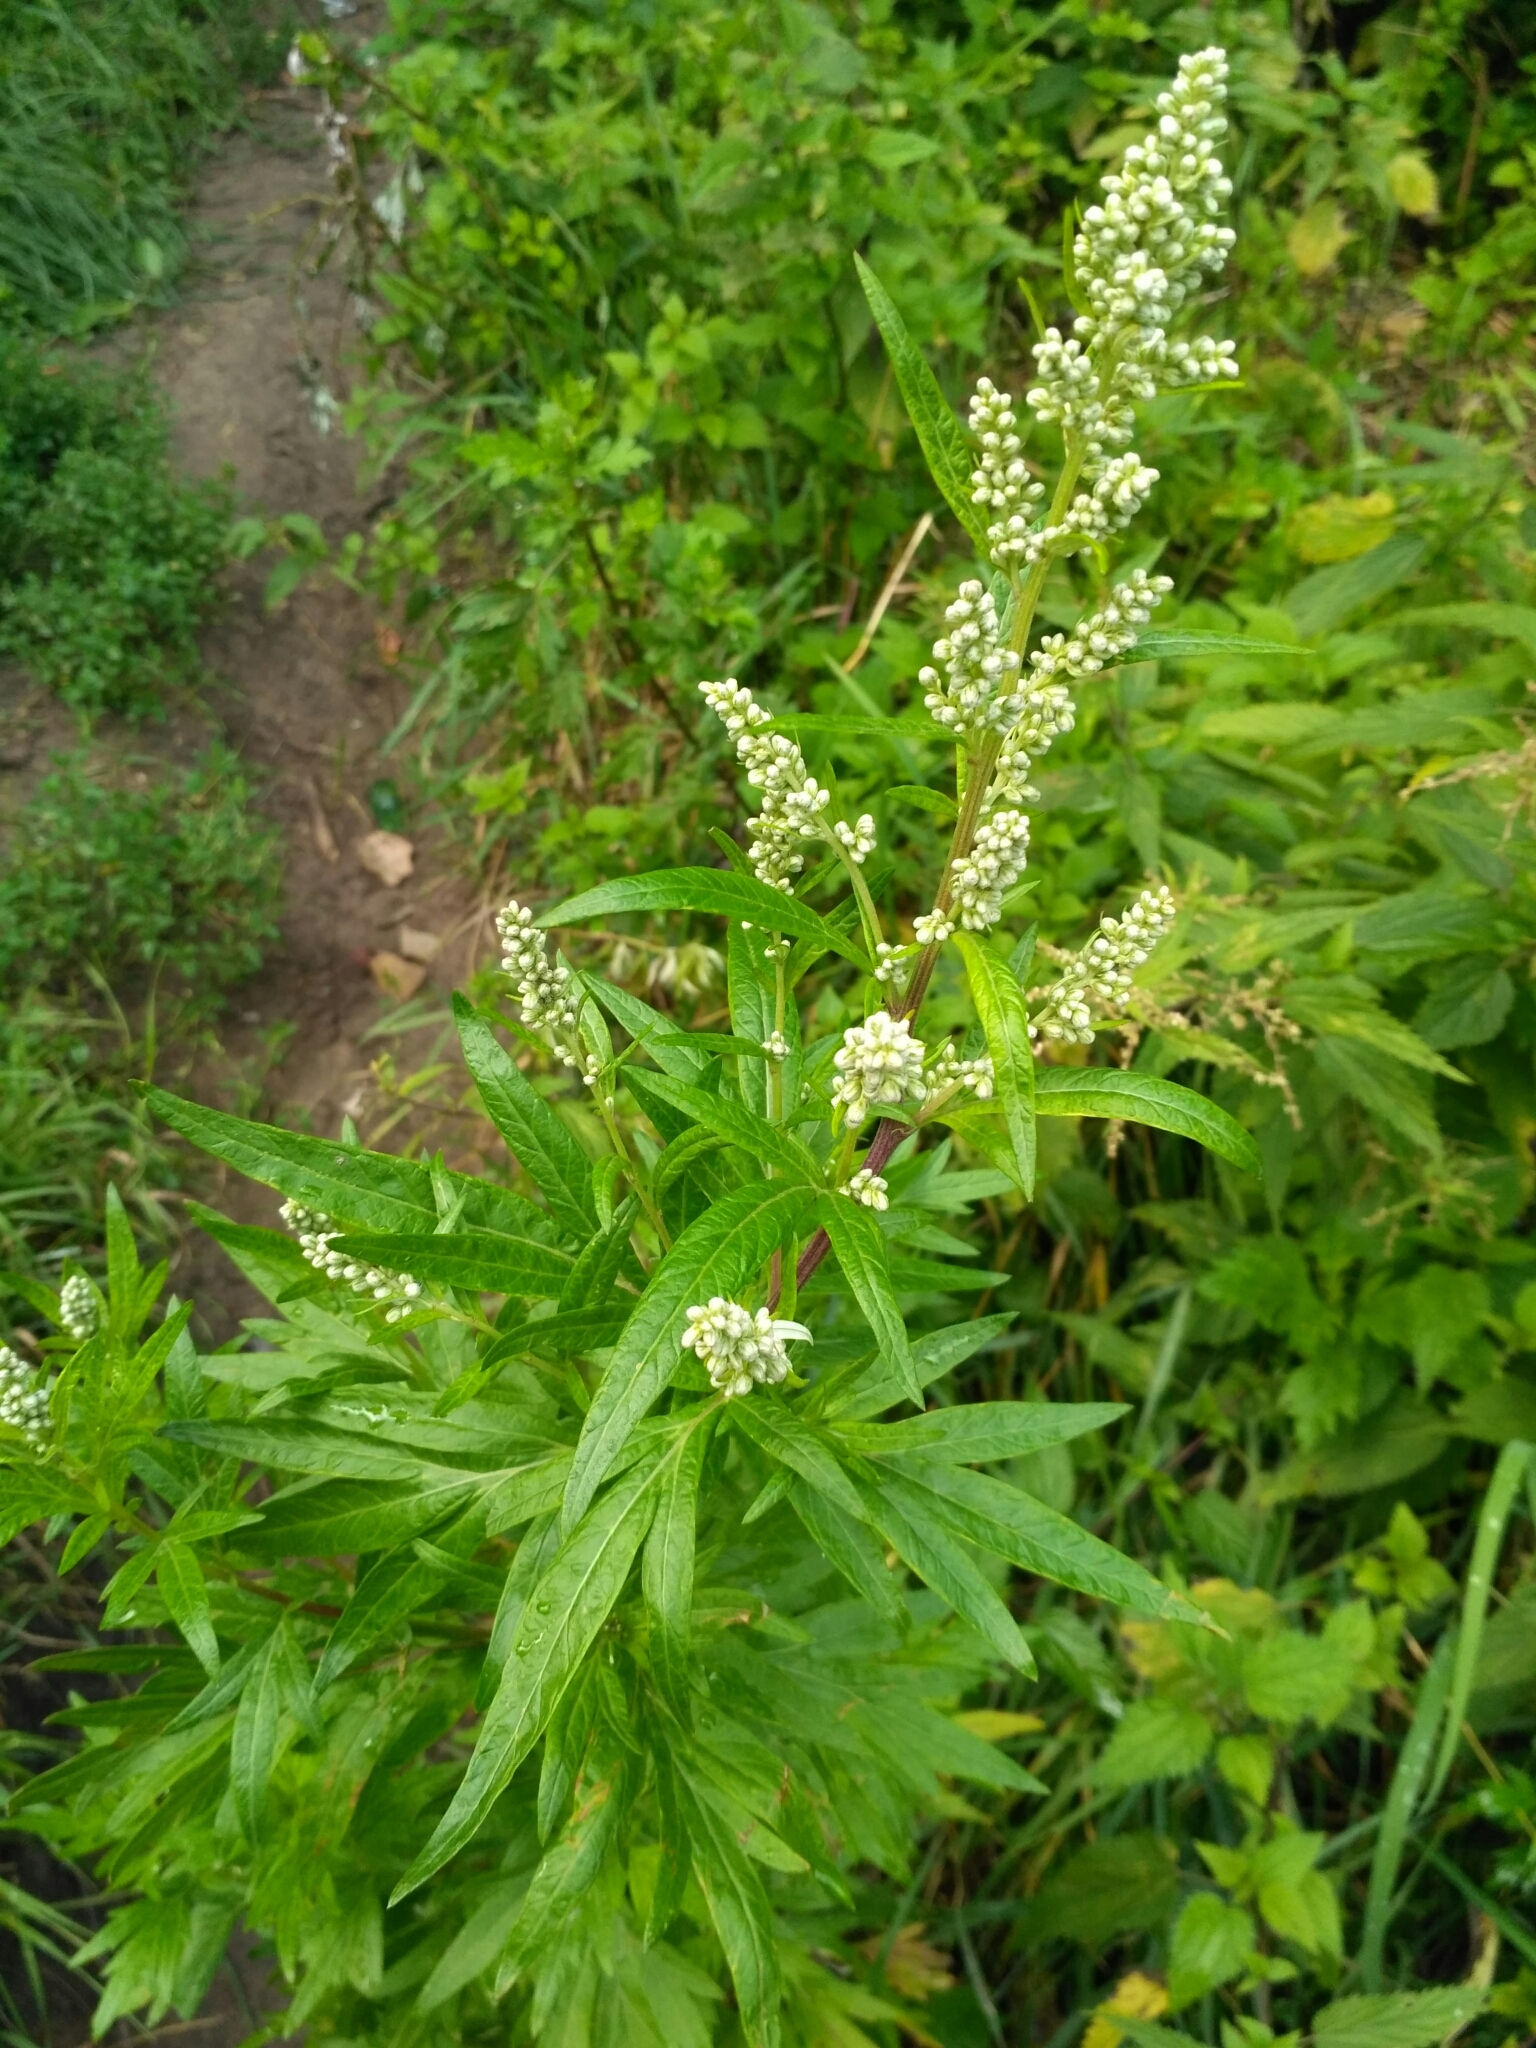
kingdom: Plantae
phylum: Tracheophyta
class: Magnoliopsida
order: Asterales
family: Asteraceae
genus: Artemisia
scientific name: Artemisia vulgaris
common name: Mugwort
